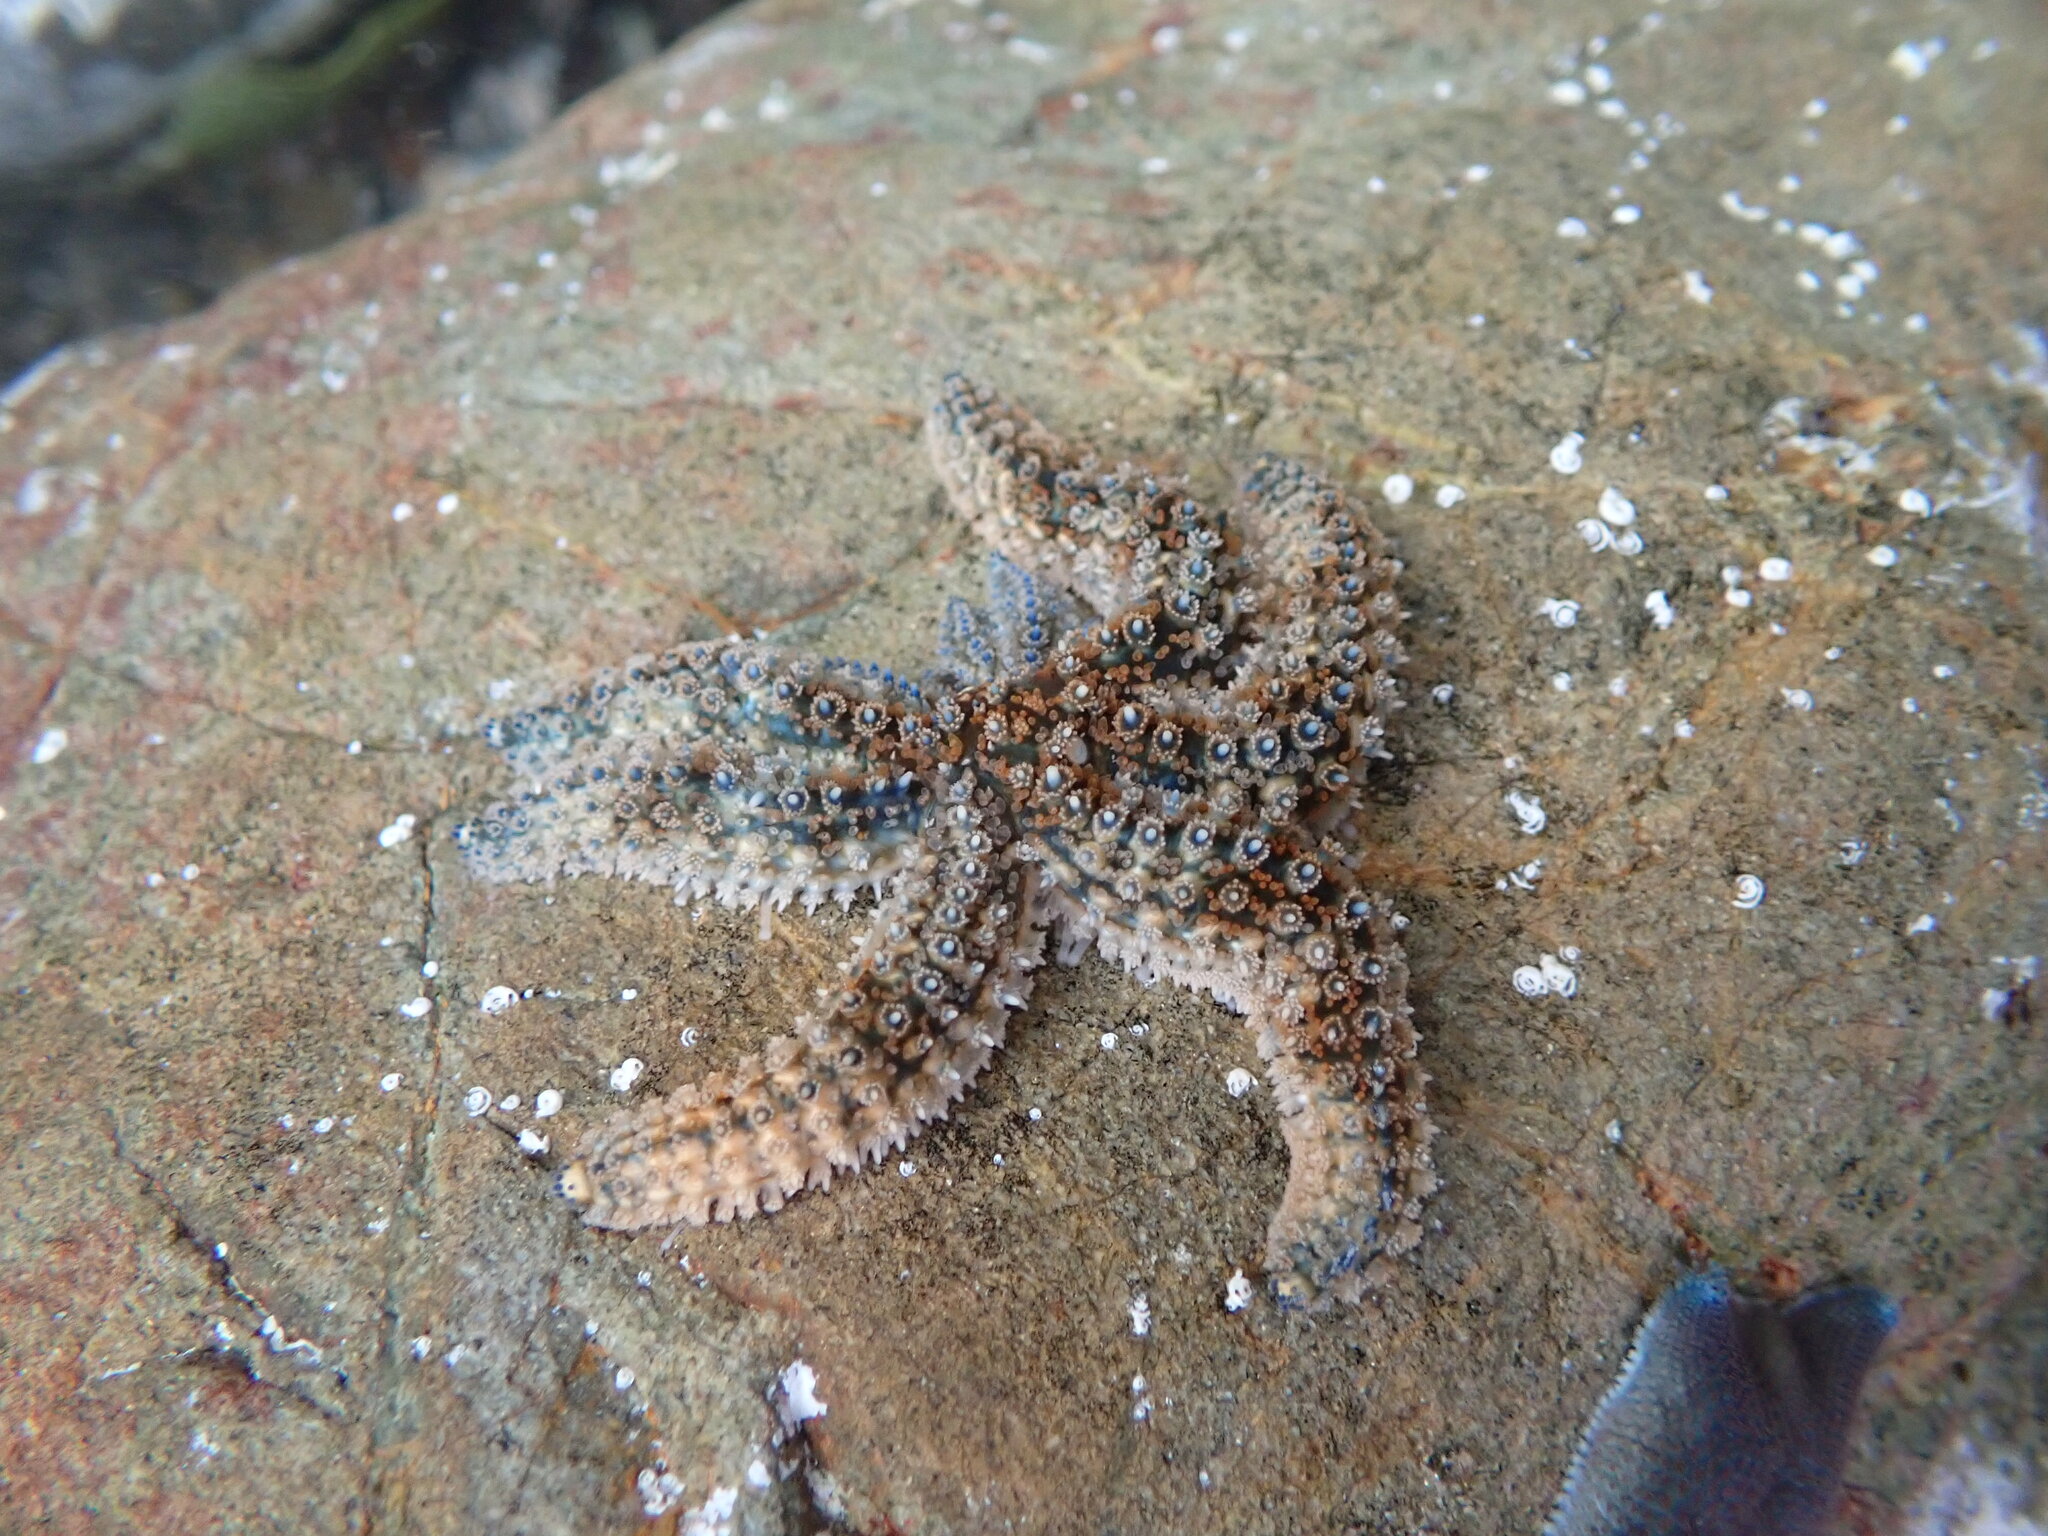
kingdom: Animalia
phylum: Echinodermata
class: Asteroidea
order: Forcipulatida
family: Asteriidae
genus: Coscinasterias
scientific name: Coscinasterias muricata
